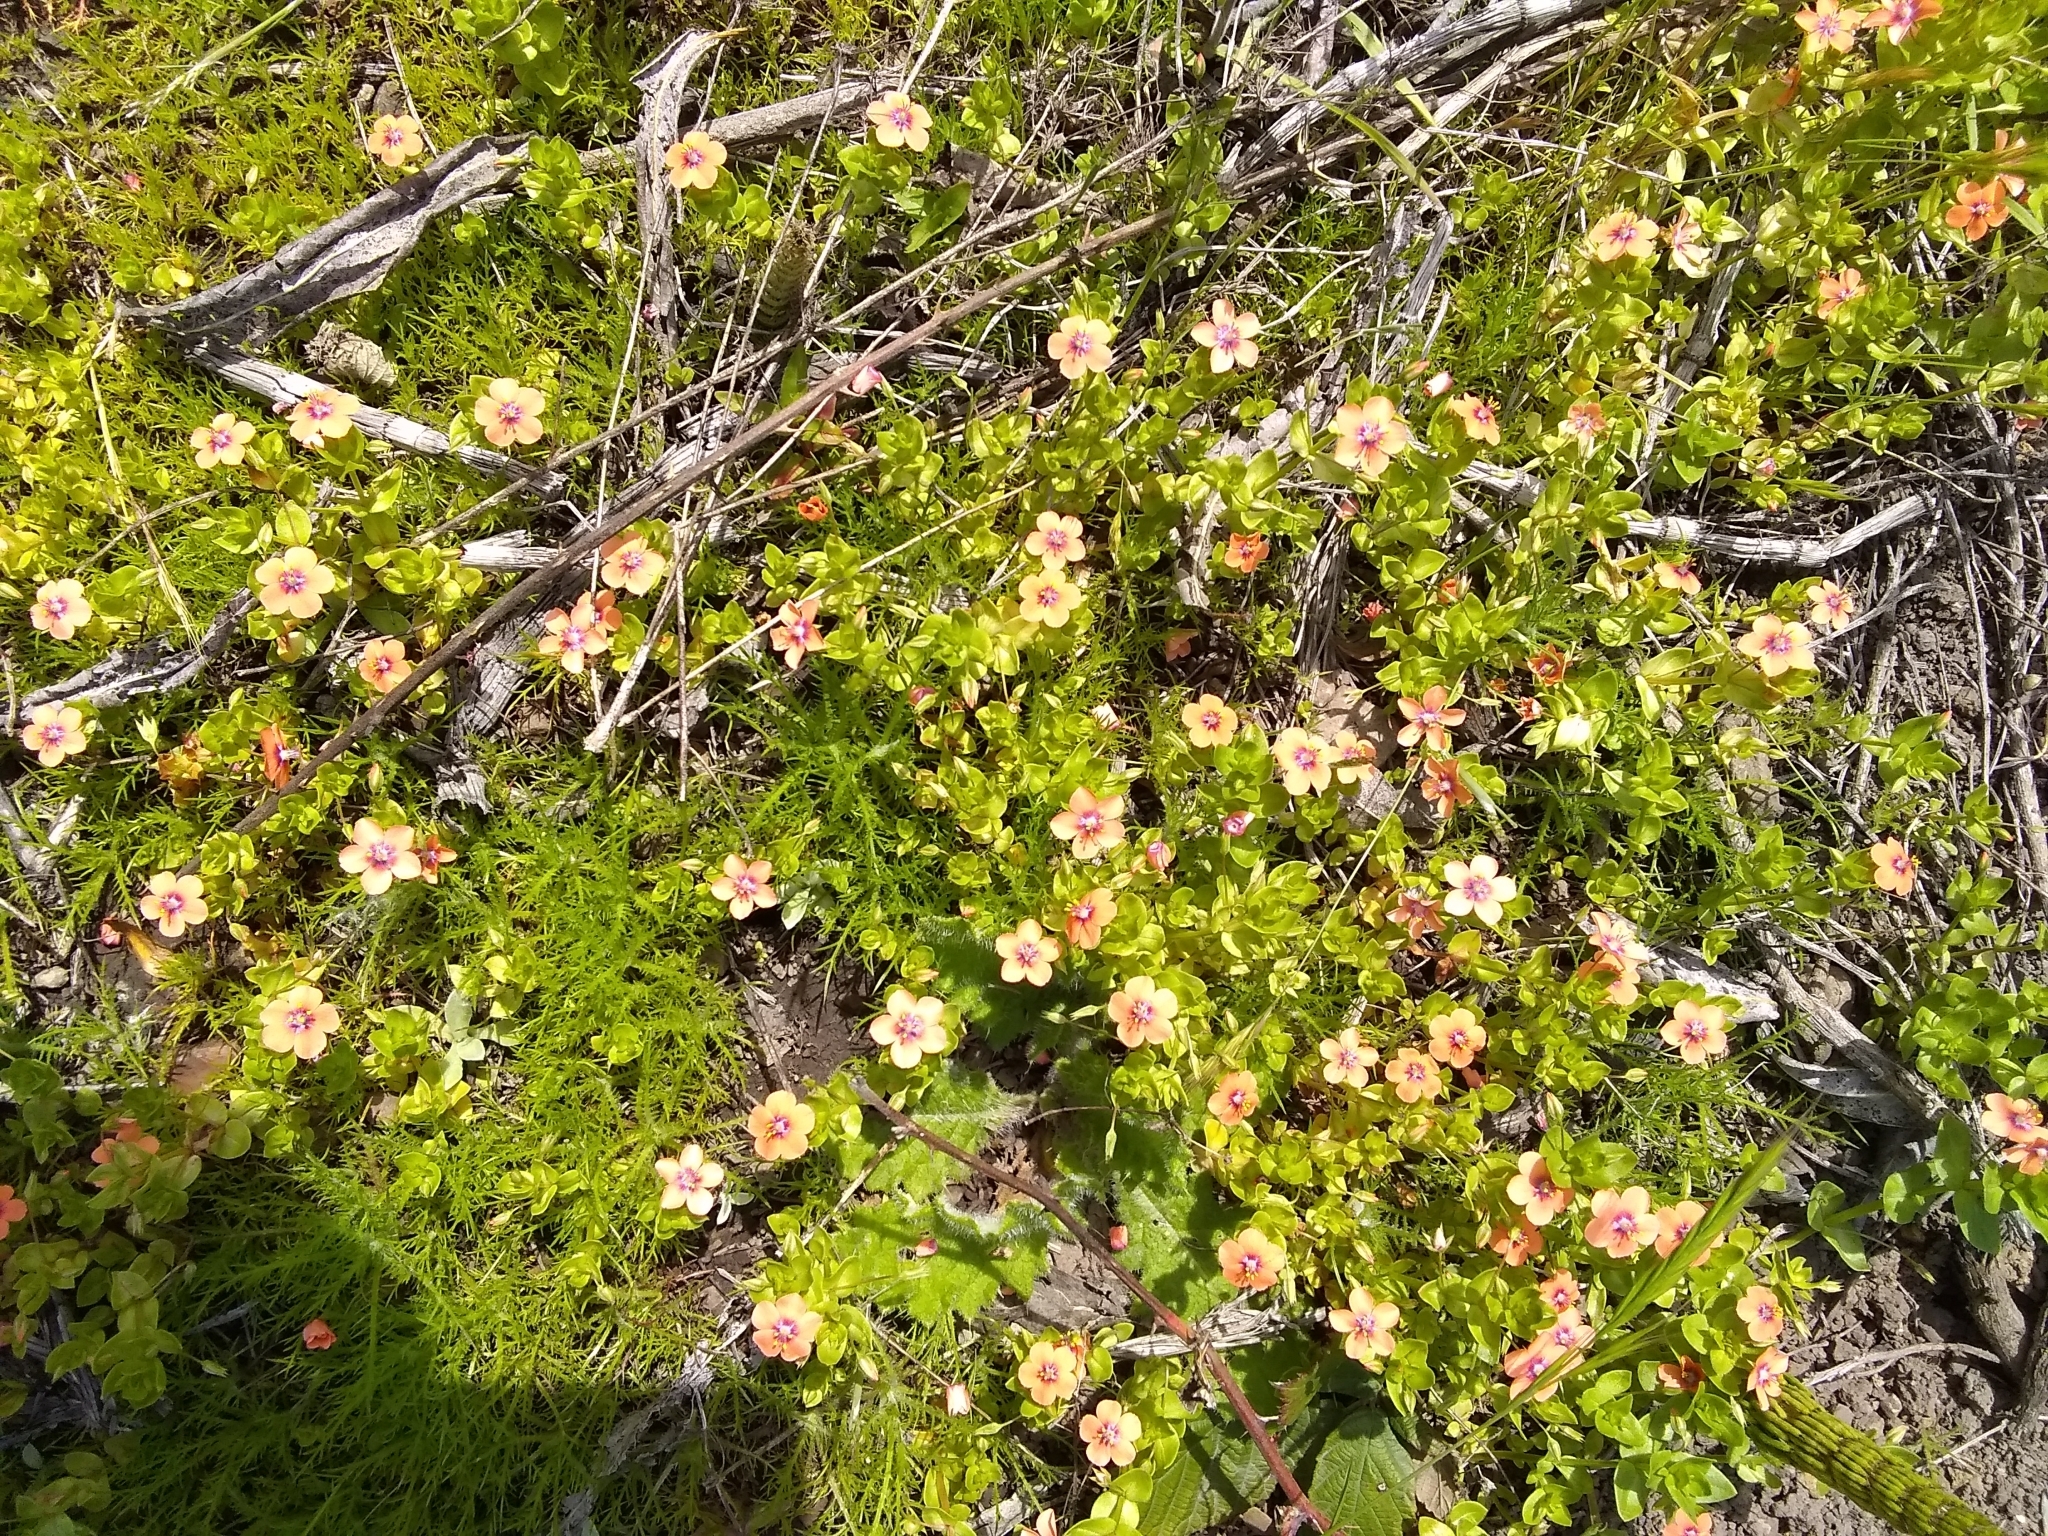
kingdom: Plantae
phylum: Tracheophyta
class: Magnoliopsida
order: Ericales
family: Primulaceae
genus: Lysimachia
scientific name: Lysimachia arvensis
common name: Scarlet pimpernel
